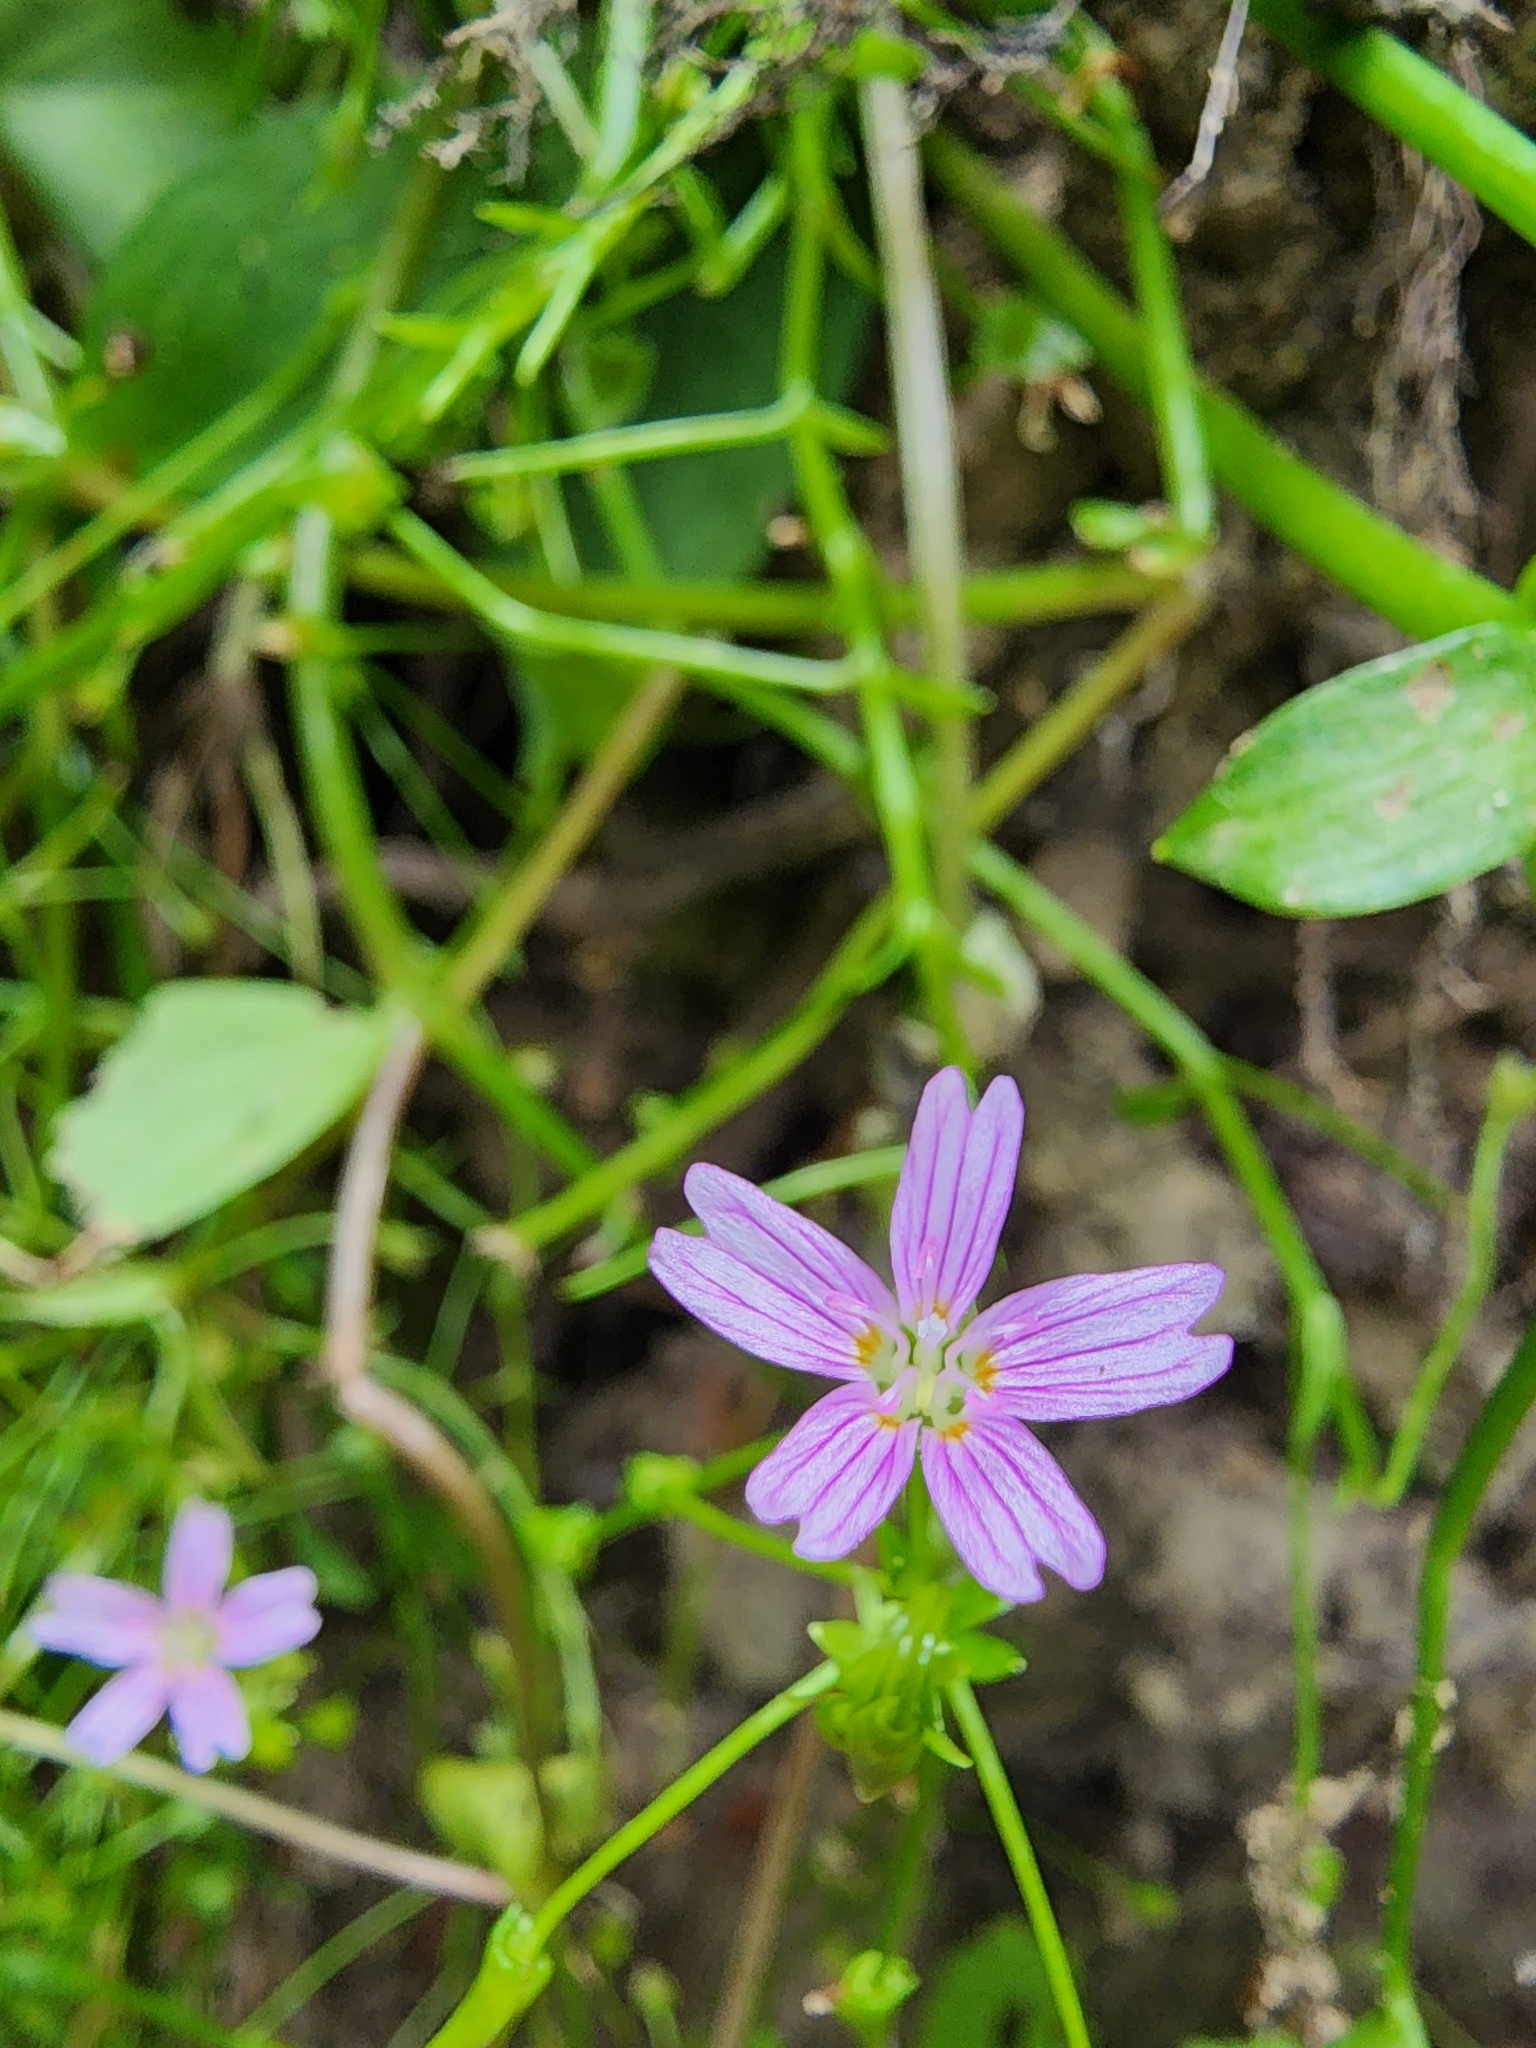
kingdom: Plantae
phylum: Tracheophyta
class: Magnoliopsida
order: Caryophyllales
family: Montiaceae
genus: Claytonia
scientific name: Claytonia sibirica
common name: Pink purslane
